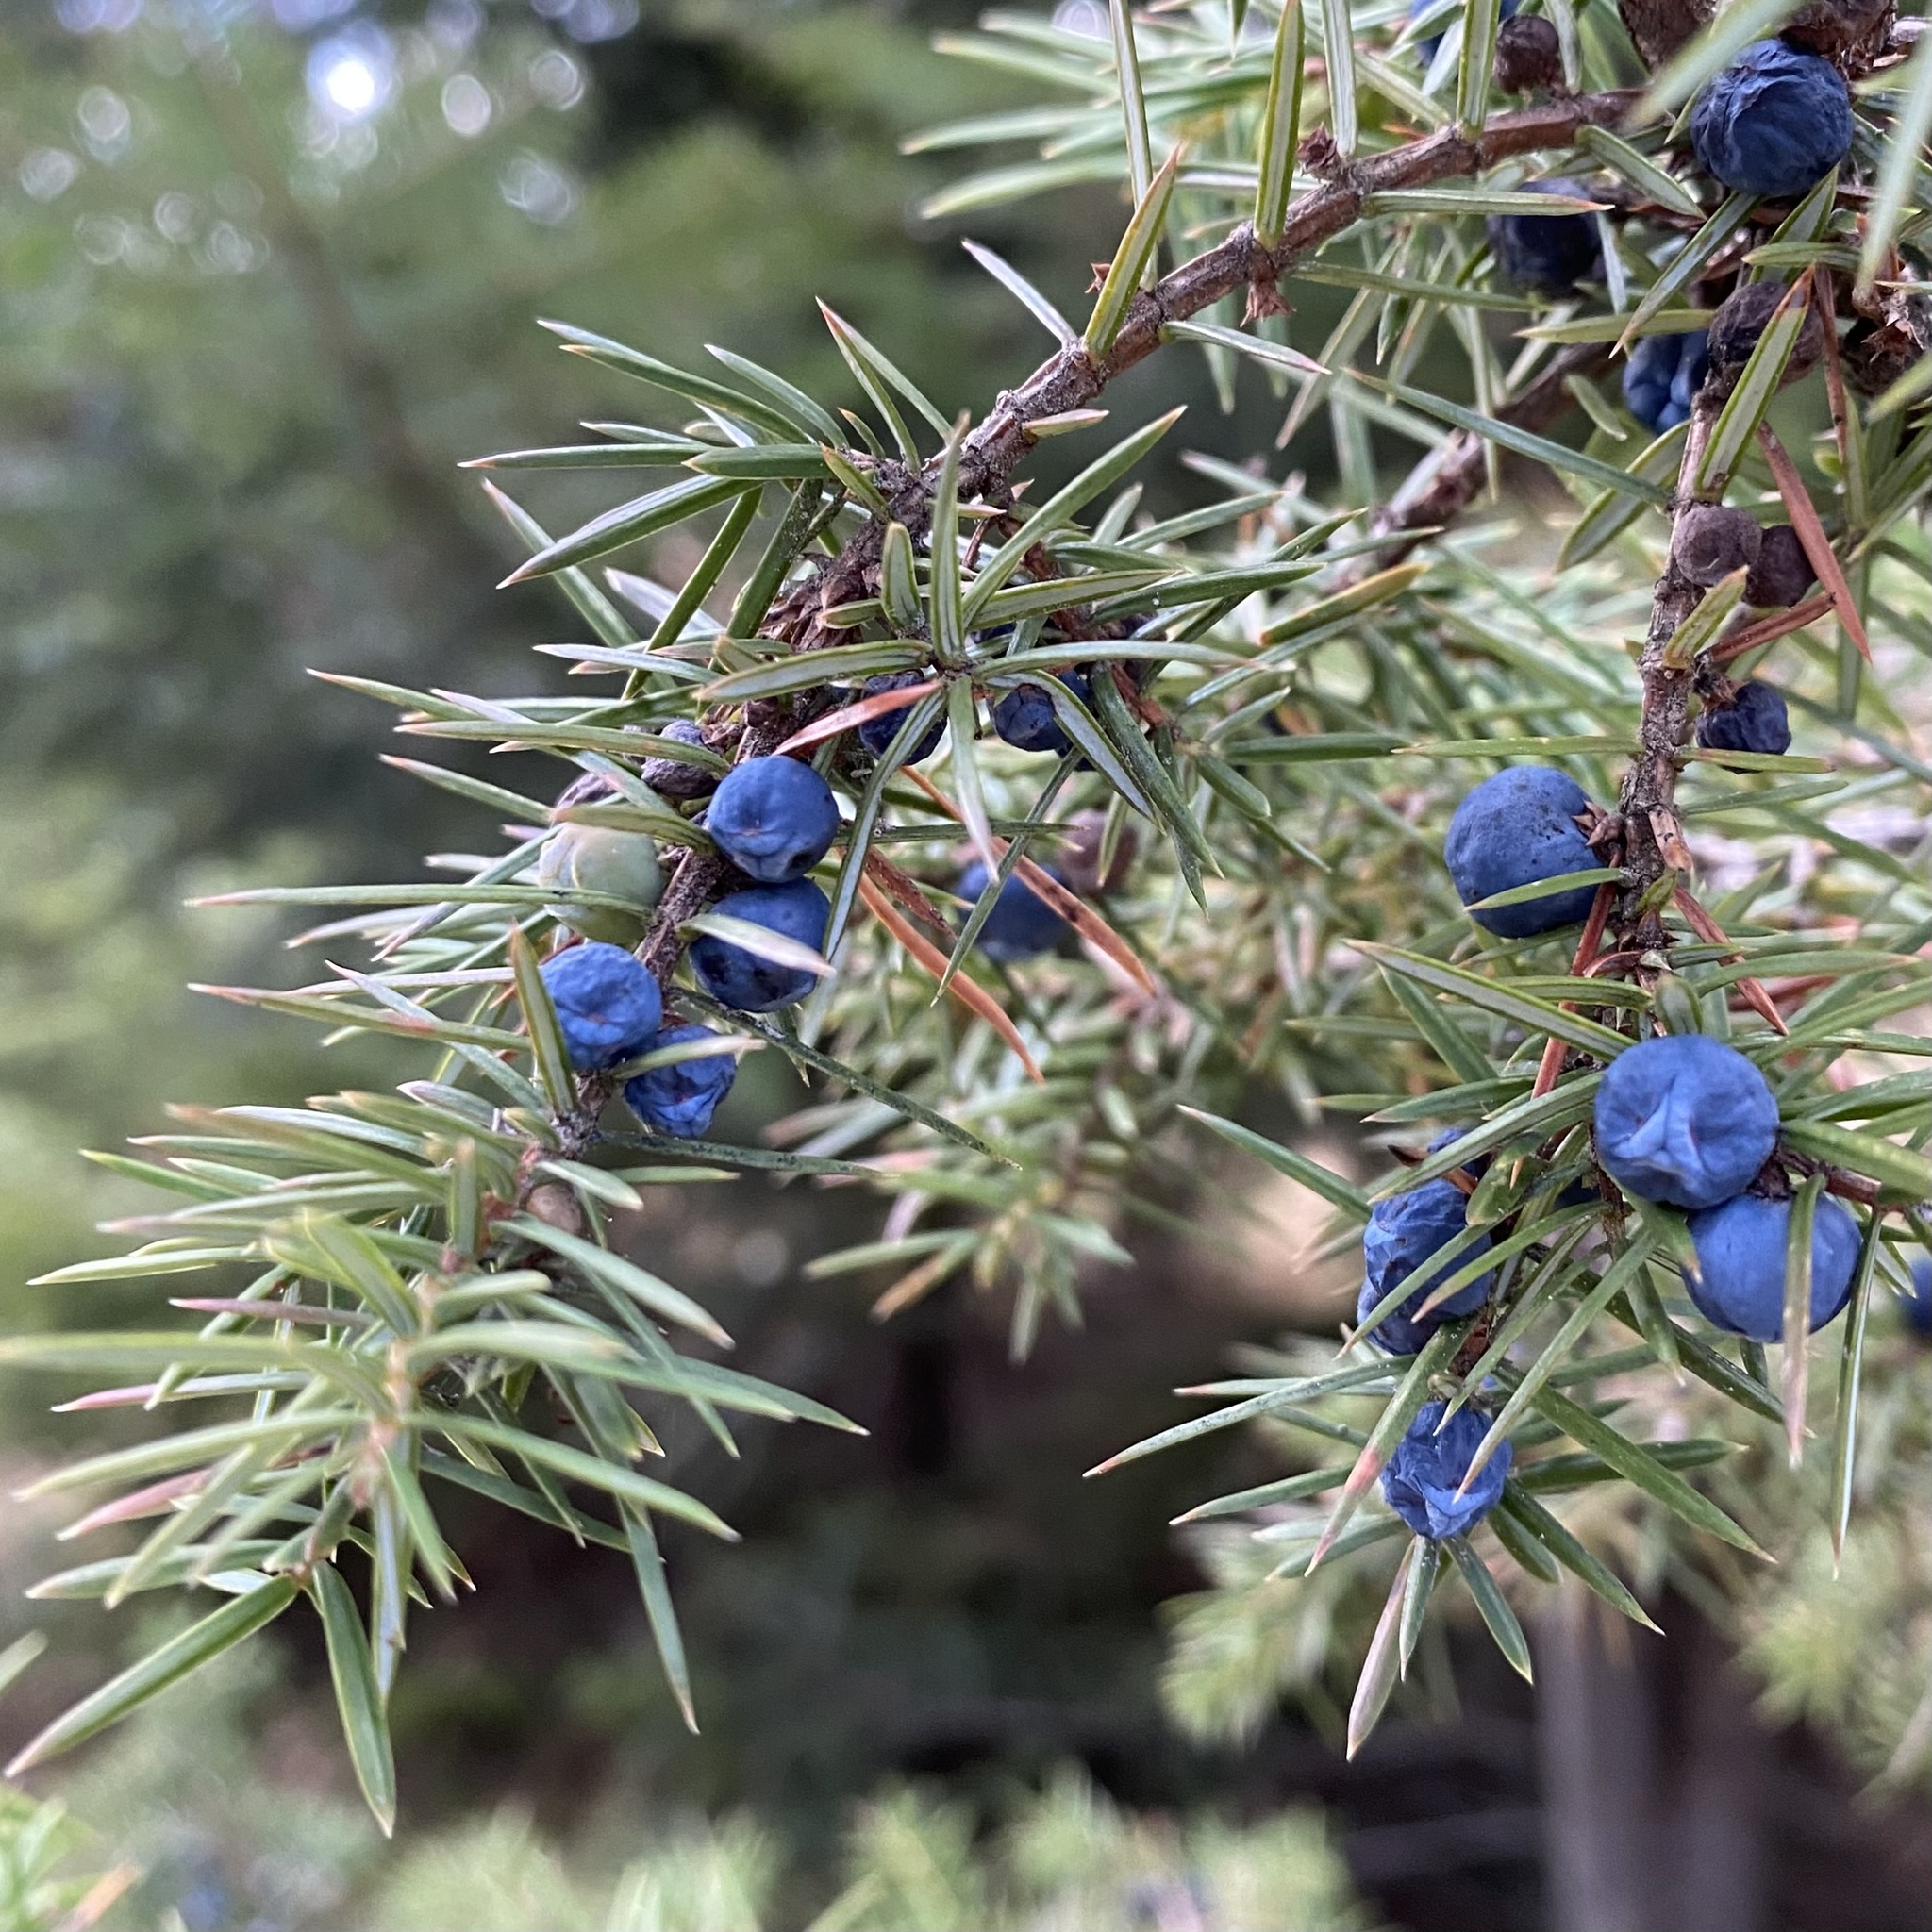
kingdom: Plantae
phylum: Tracheophyta
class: Pinopsida
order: Pinales
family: Cupressaceae
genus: Juniperus
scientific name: Juniperus communis
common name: Common juniper
